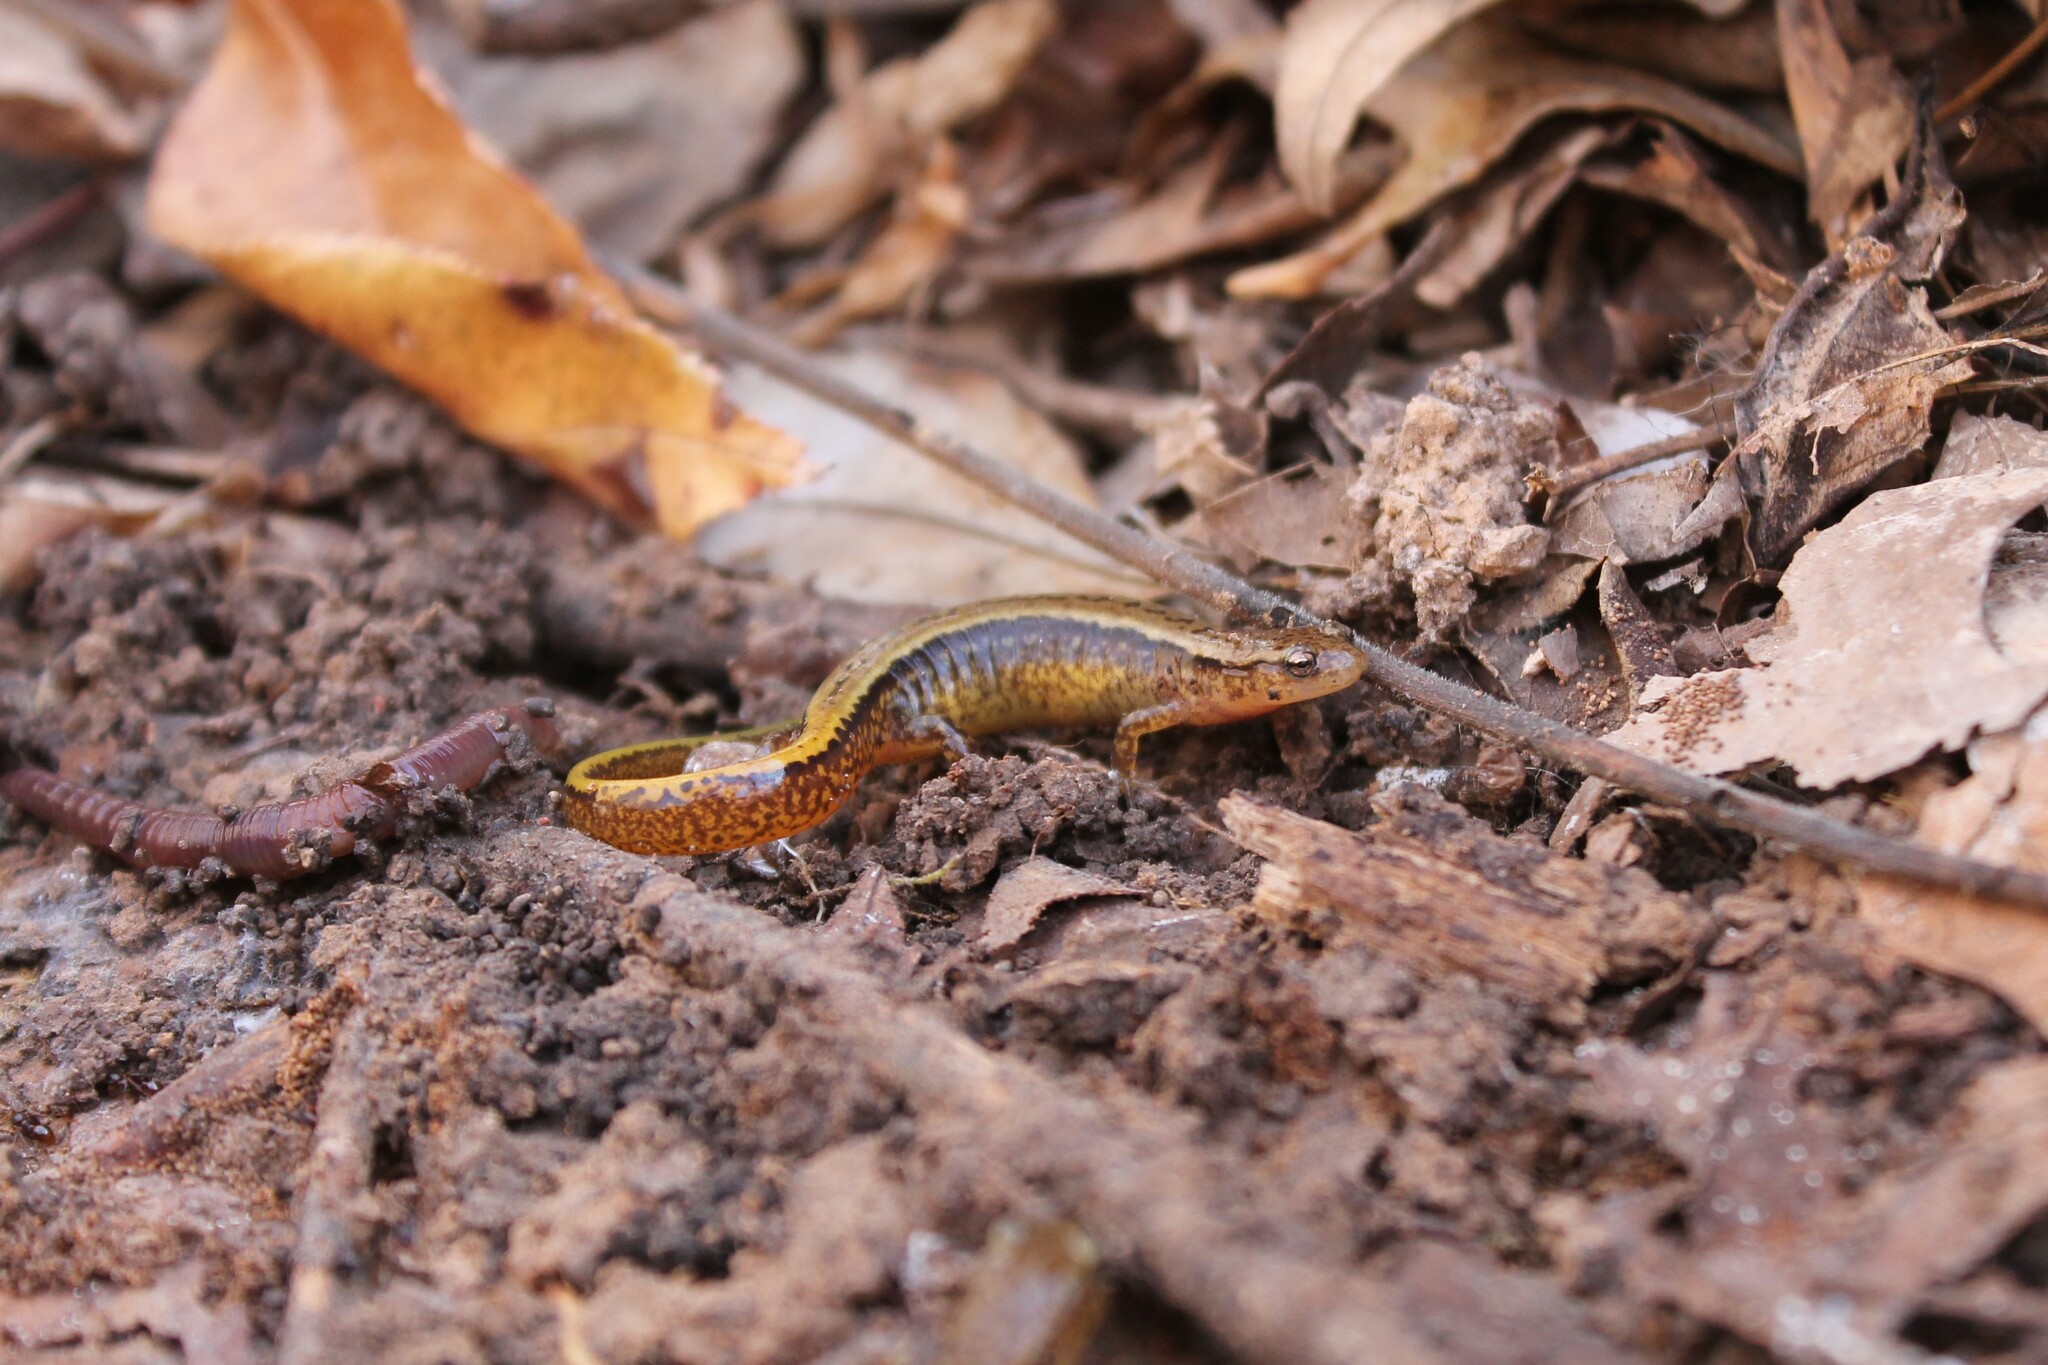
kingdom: Animalia
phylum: Chordata
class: Amphibia
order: Caudata
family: Plethodontidae
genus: Eurycea
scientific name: Eurycea cirrigera
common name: Southern two-lined salamander
